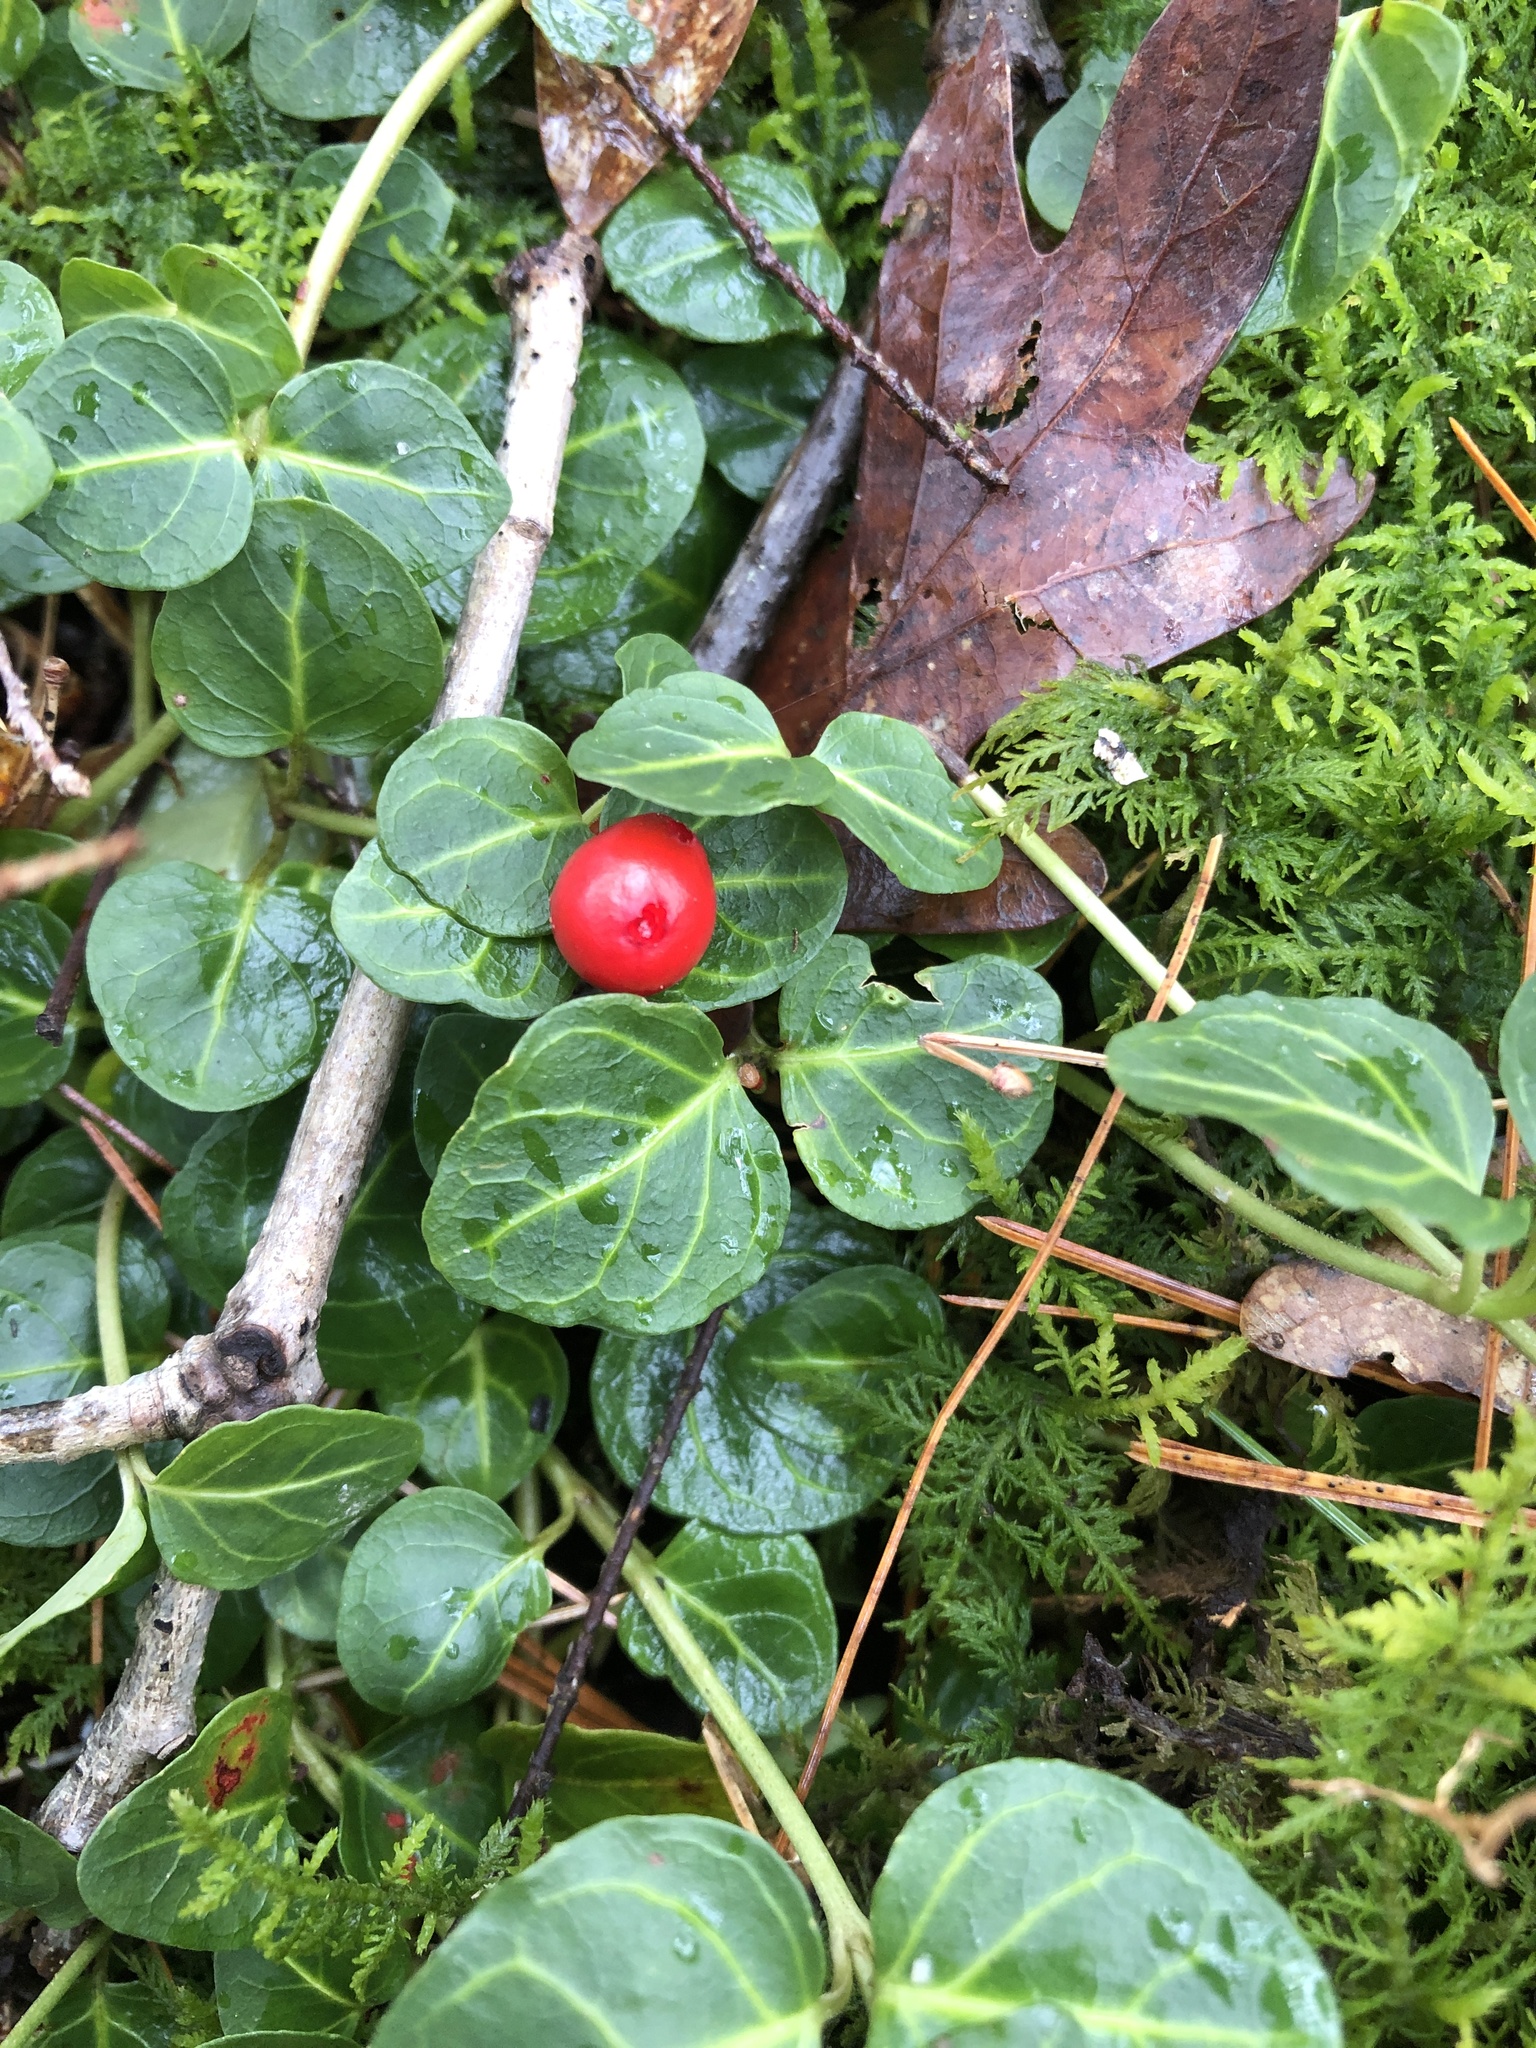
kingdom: Plantae
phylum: Tracheophyta
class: Magnoliopsida
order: Gentianales
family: Rubiaceae
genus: Mitchella
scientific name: Mitchella repens
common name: Partridge-berry
